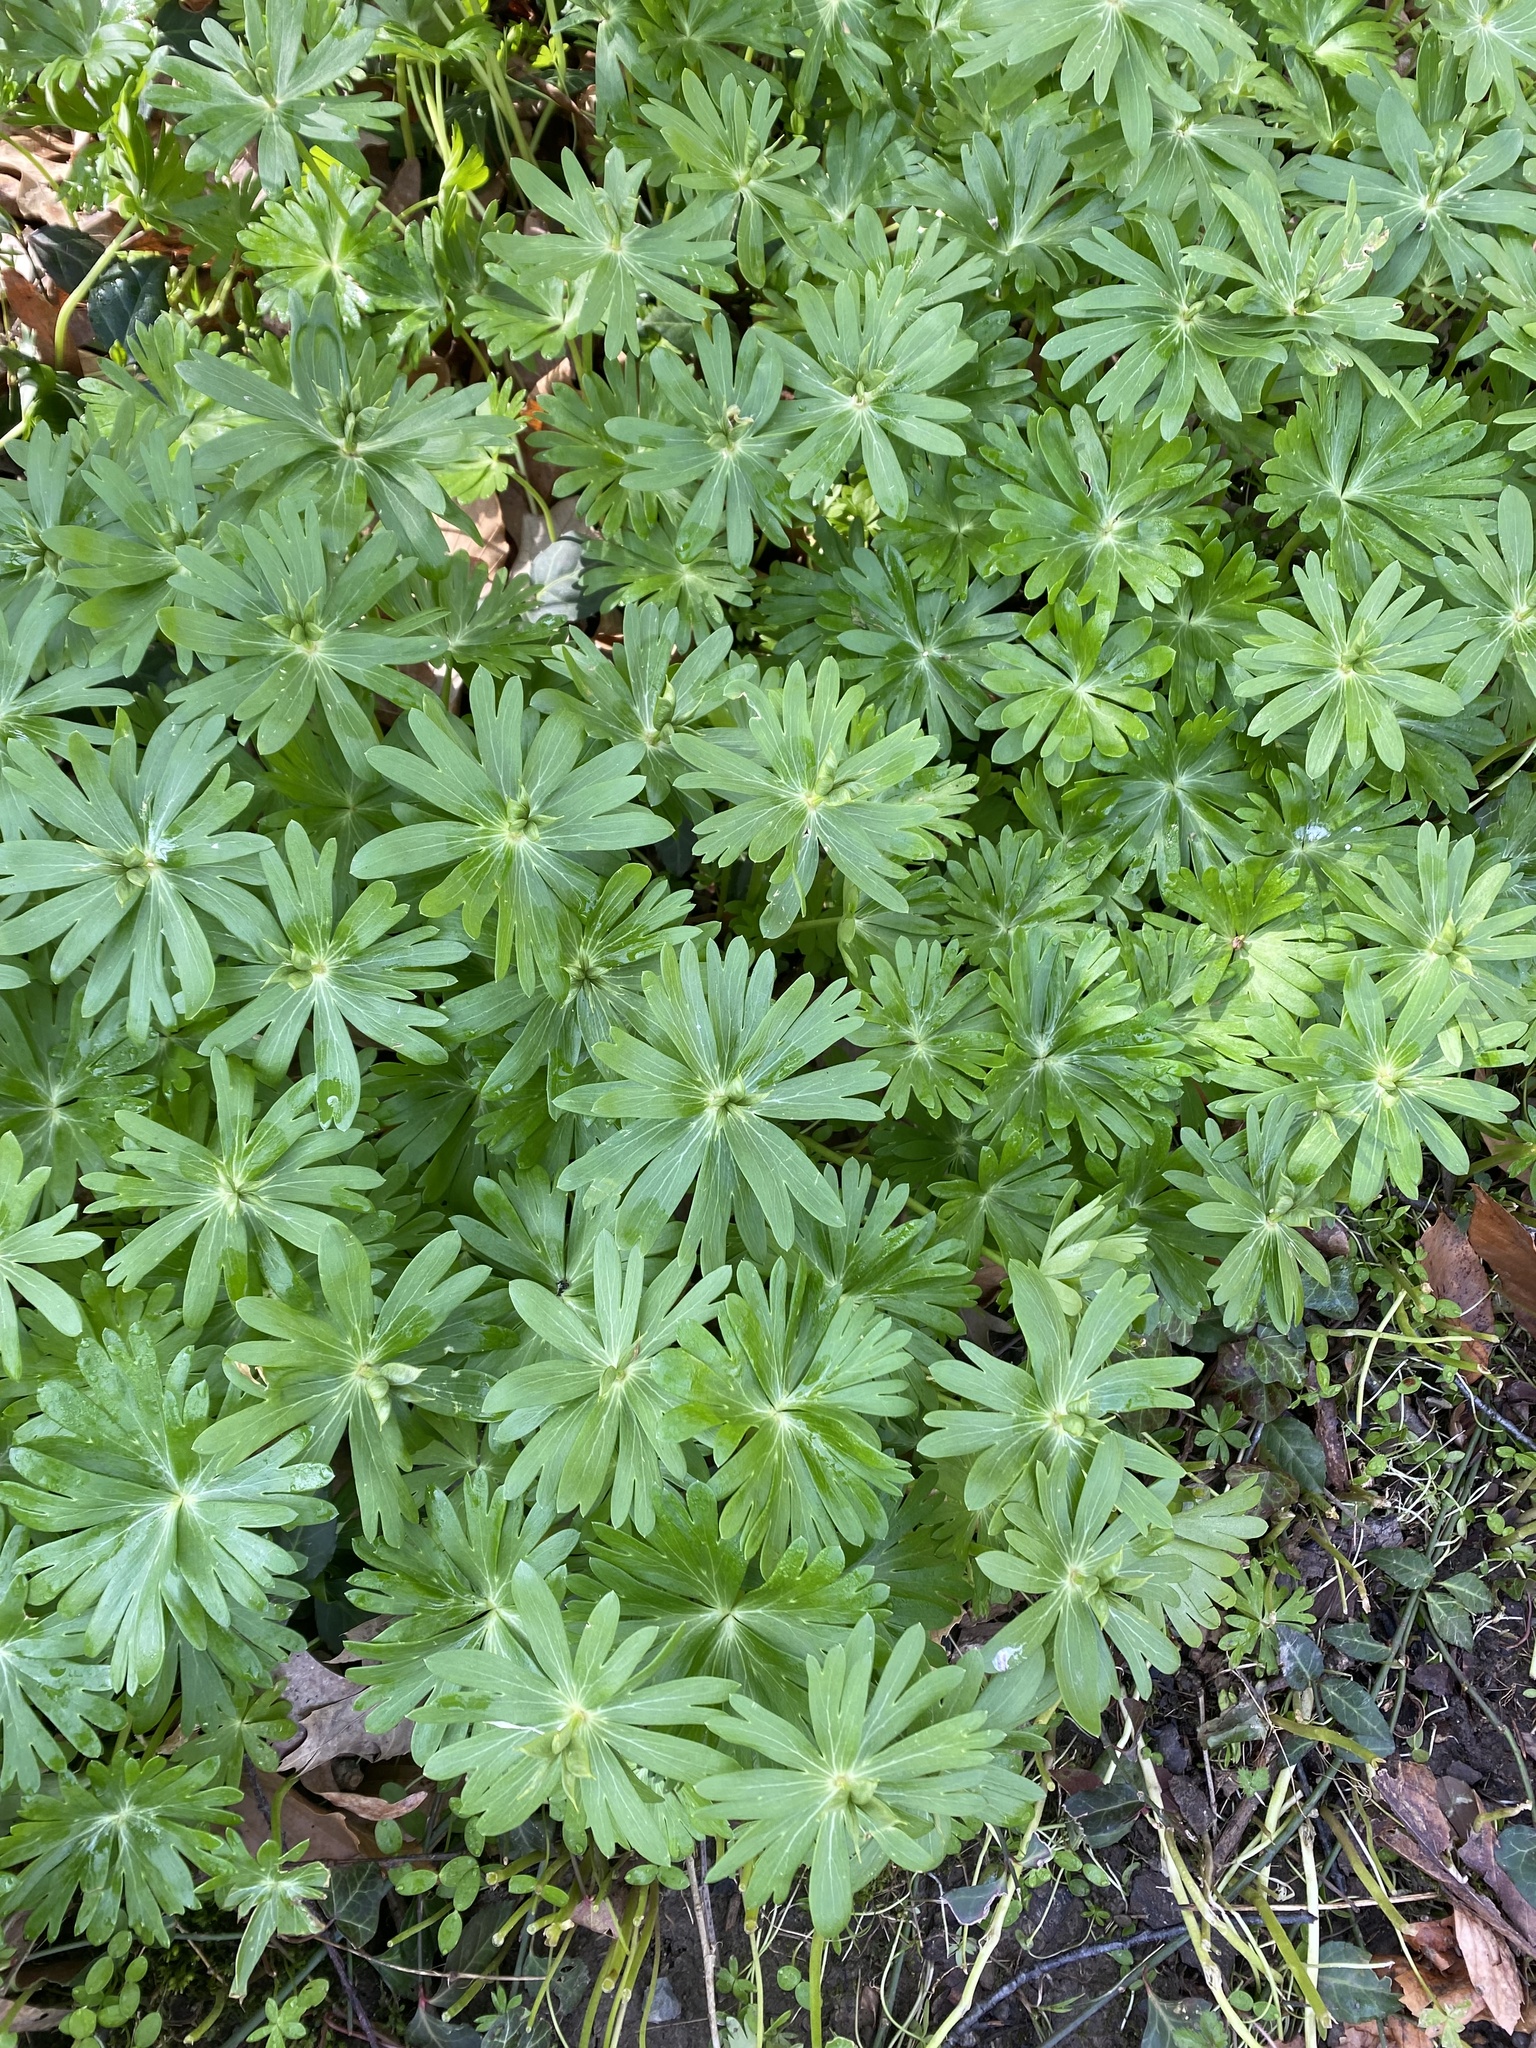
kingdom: Plantae
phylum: Tracheophyta
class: Magnoliopsida
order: Ranunculales
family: Ranunculaceae
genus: Eranthis
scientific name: Eranthis hyemalis
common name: Winter aconite
